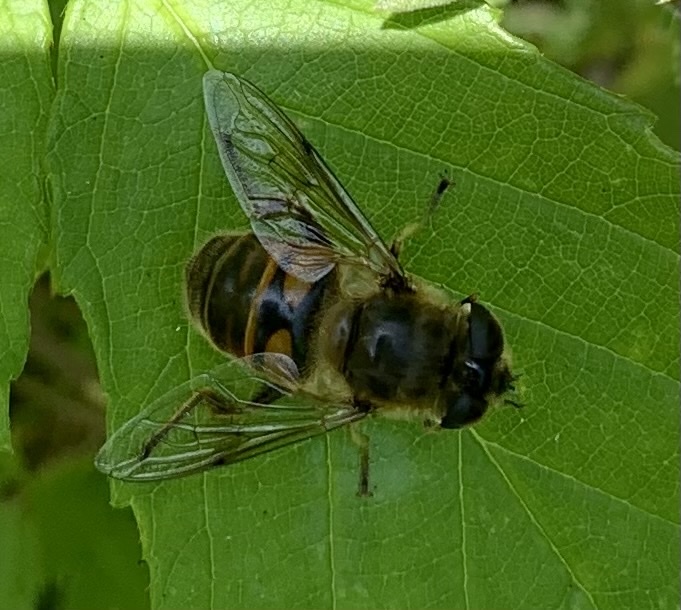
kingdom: Animalia
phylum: Arthropoda
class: Insecta
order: Diptera
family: Syrphidae
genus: Eristalis
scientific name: Eristalis tenax
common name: Drone fly
